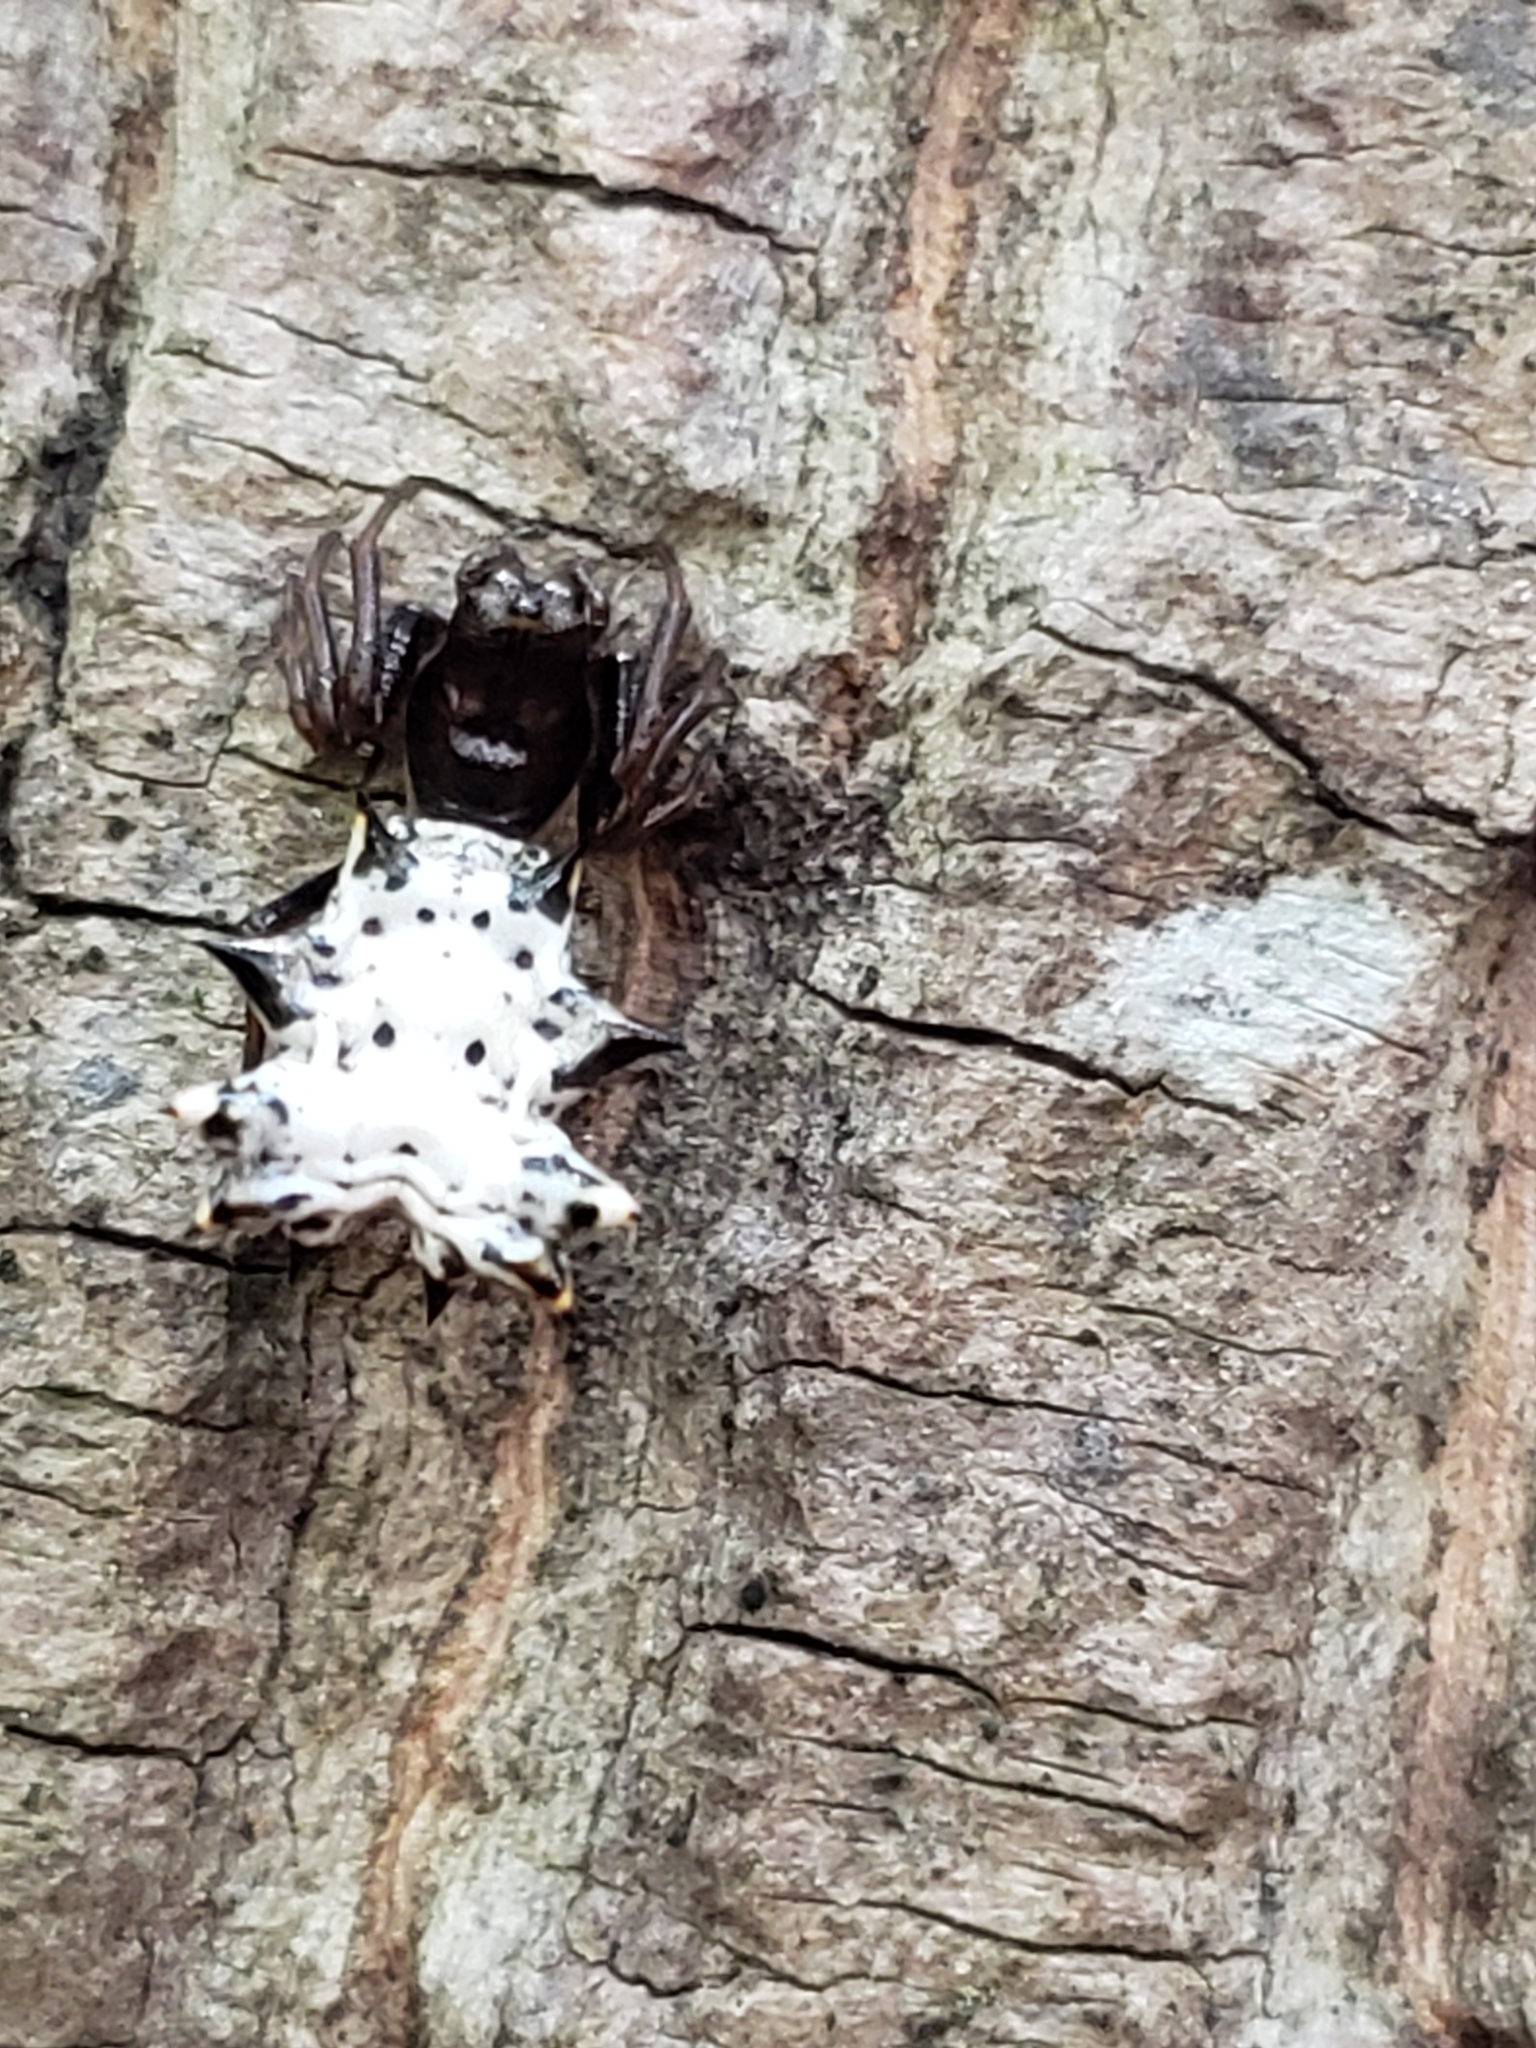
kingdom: Animalia
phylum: Arthropoda
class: Arachnida
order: Araneae
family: Araneidae
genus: Micrathena
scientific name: Micrathena gracilis
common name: Orb weavers
